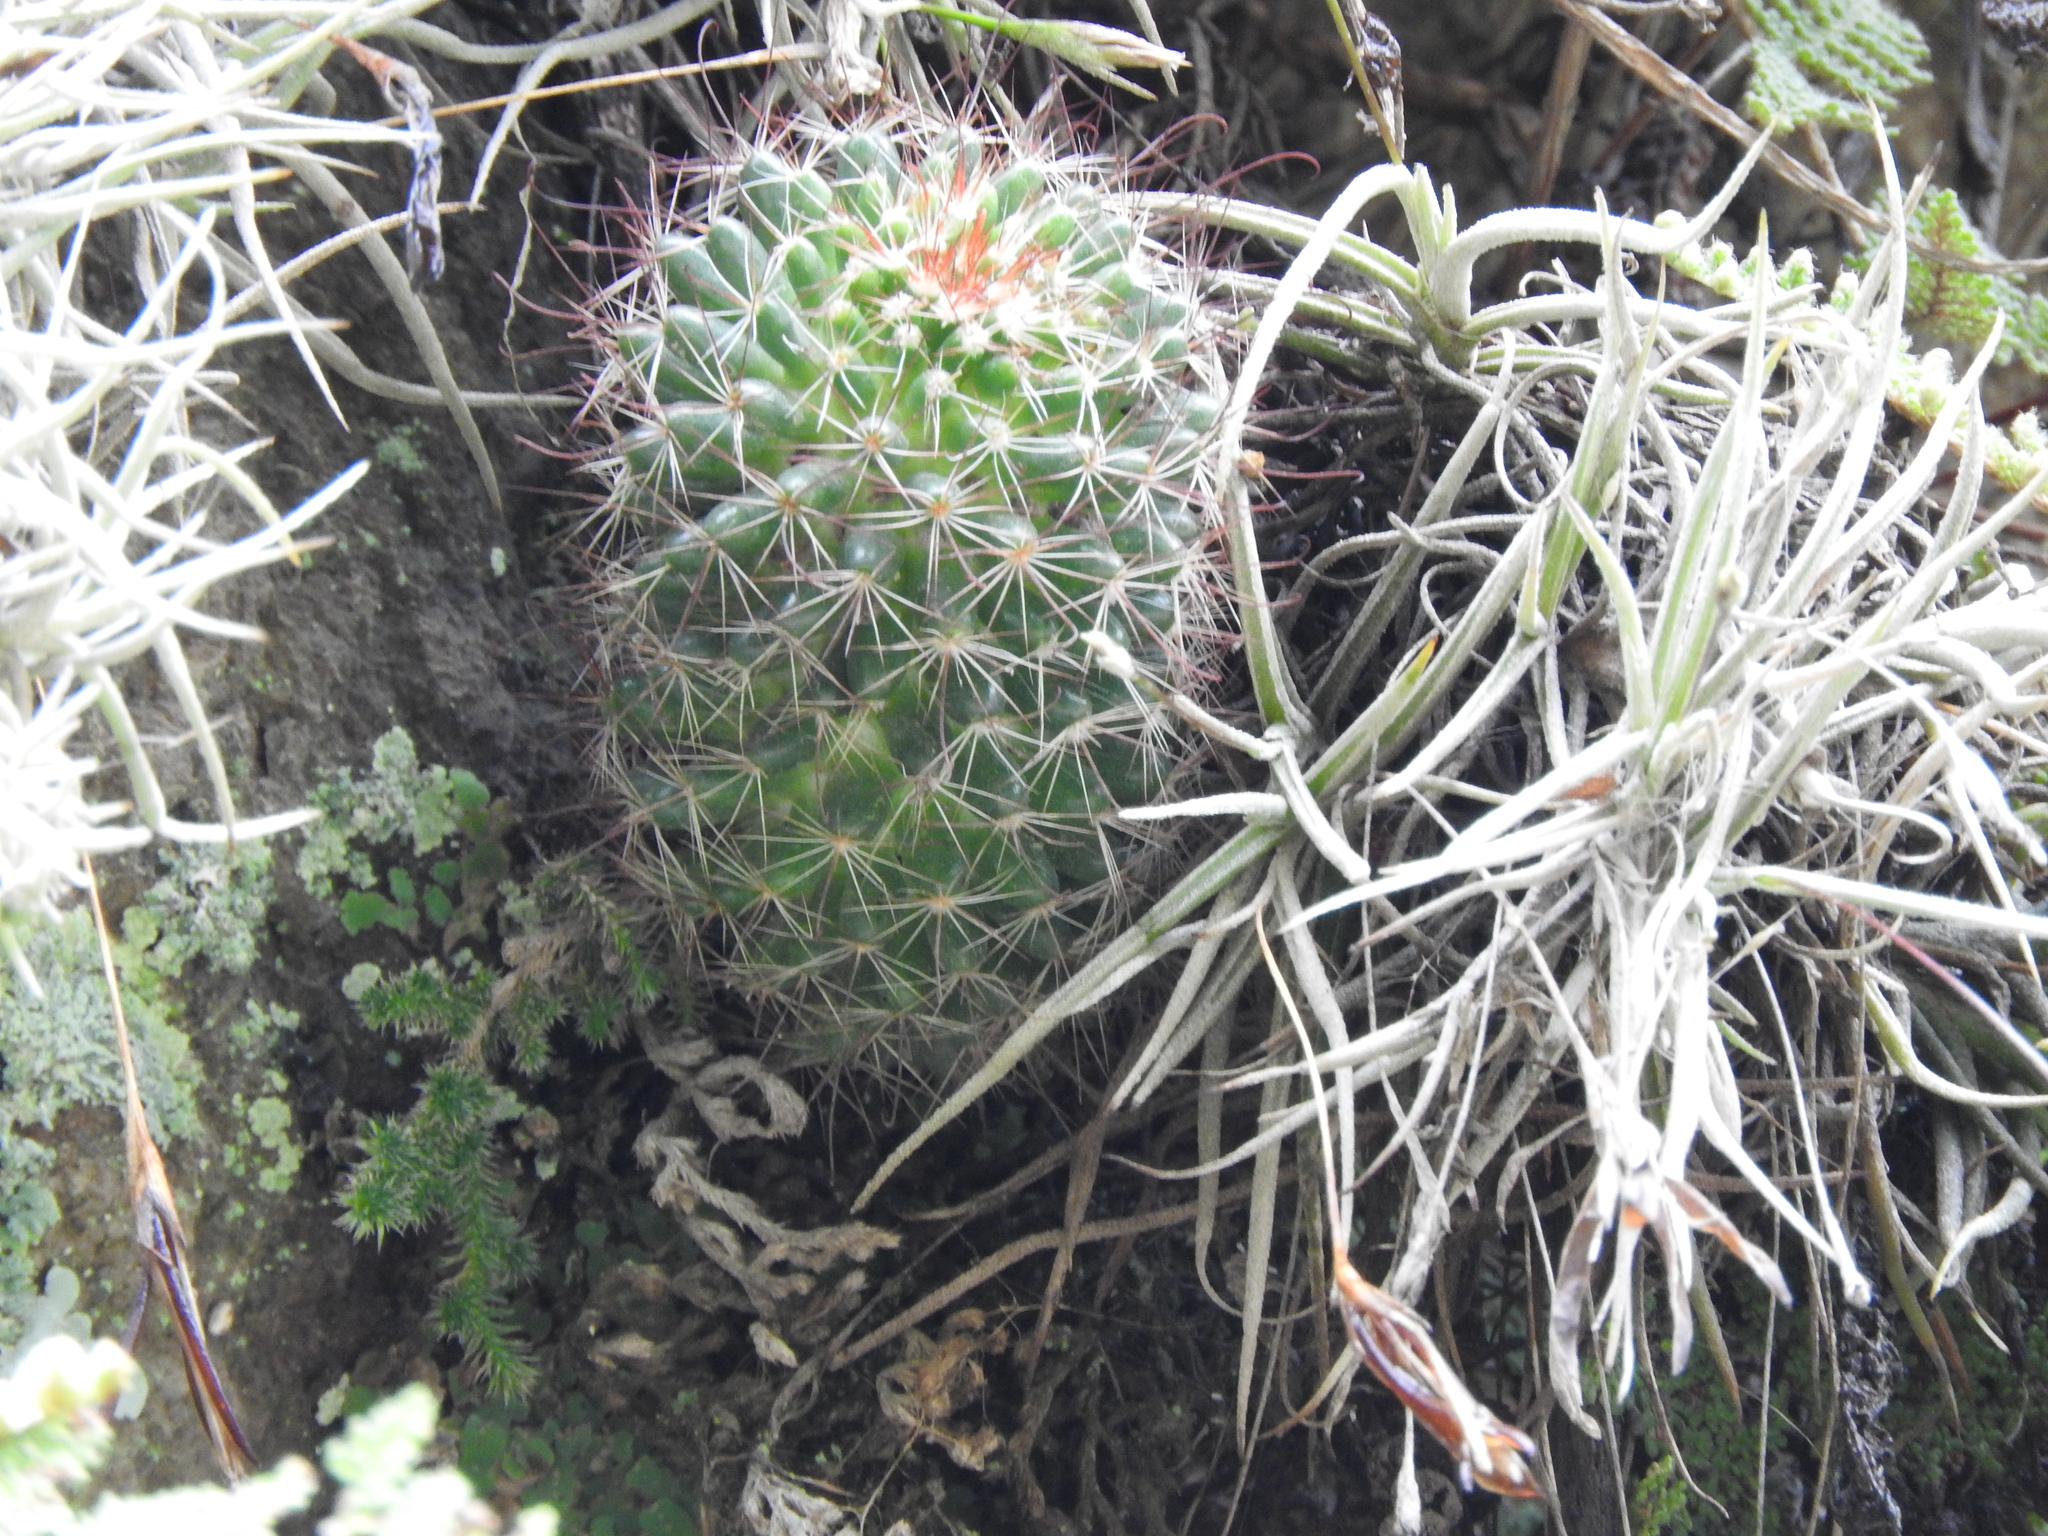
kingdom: Plantae
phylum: Tracheophyta
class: Magnoliopsida
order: Caryophyllales
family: Cactaceae
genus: Mammillaria
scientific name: Mammillaria fittkaui
